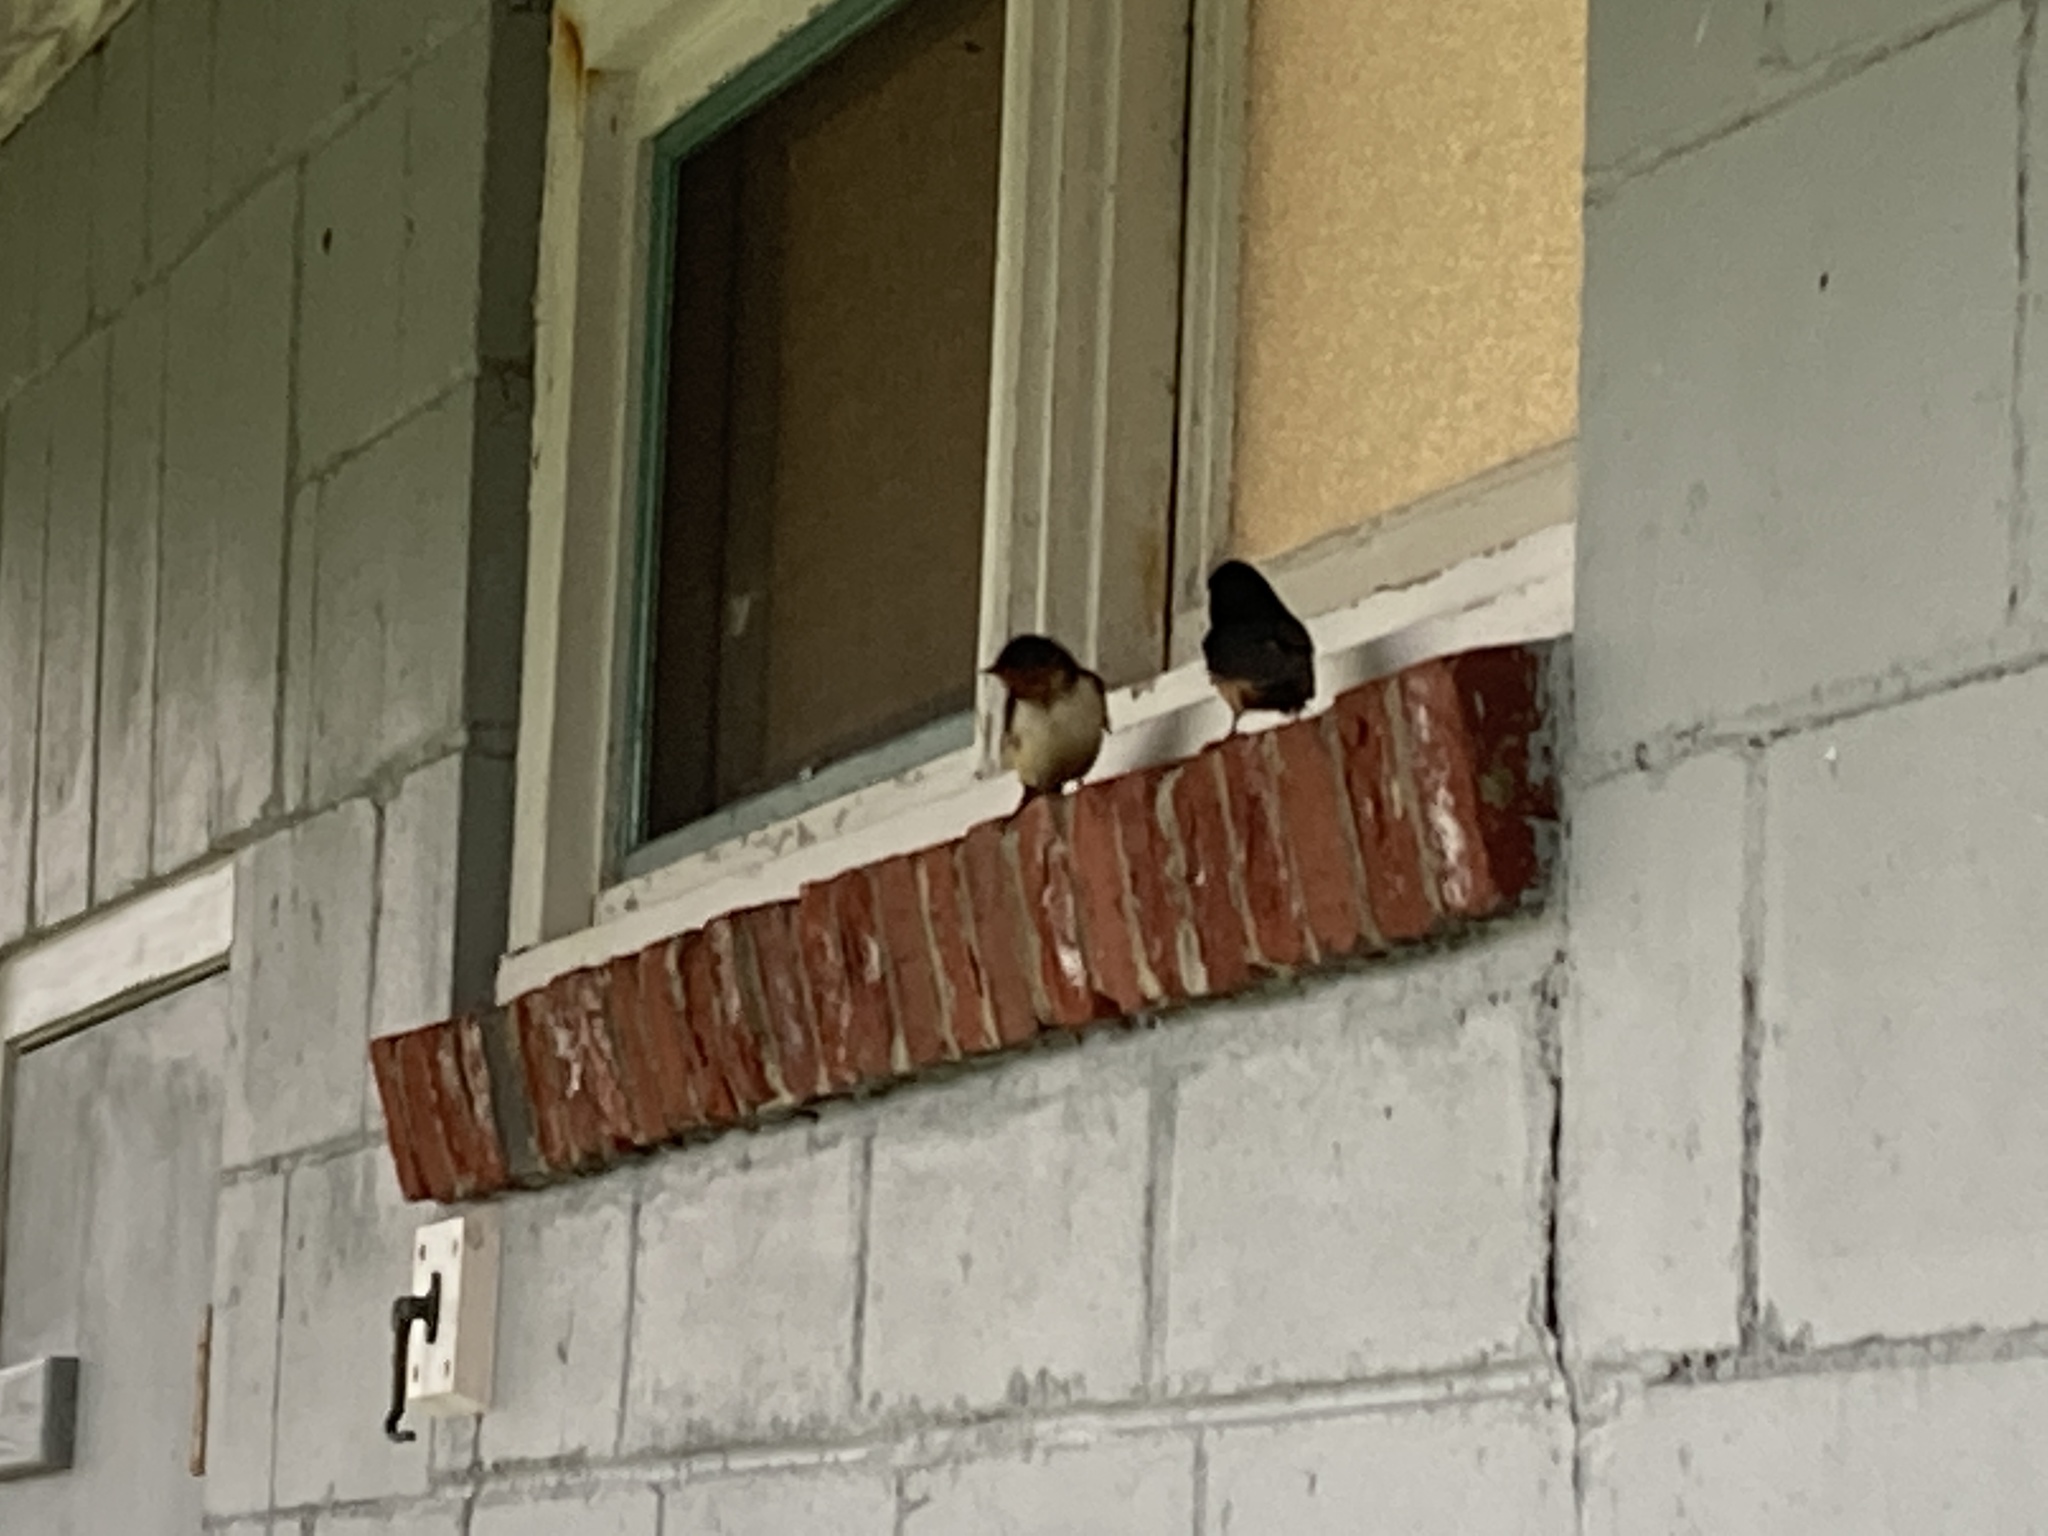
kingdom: Animalia
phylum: Chordata
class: Aves
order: Passeriformes
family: Hirundinidae
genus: Hirundo
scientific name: Hirundo rustica
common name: Barn swallow
